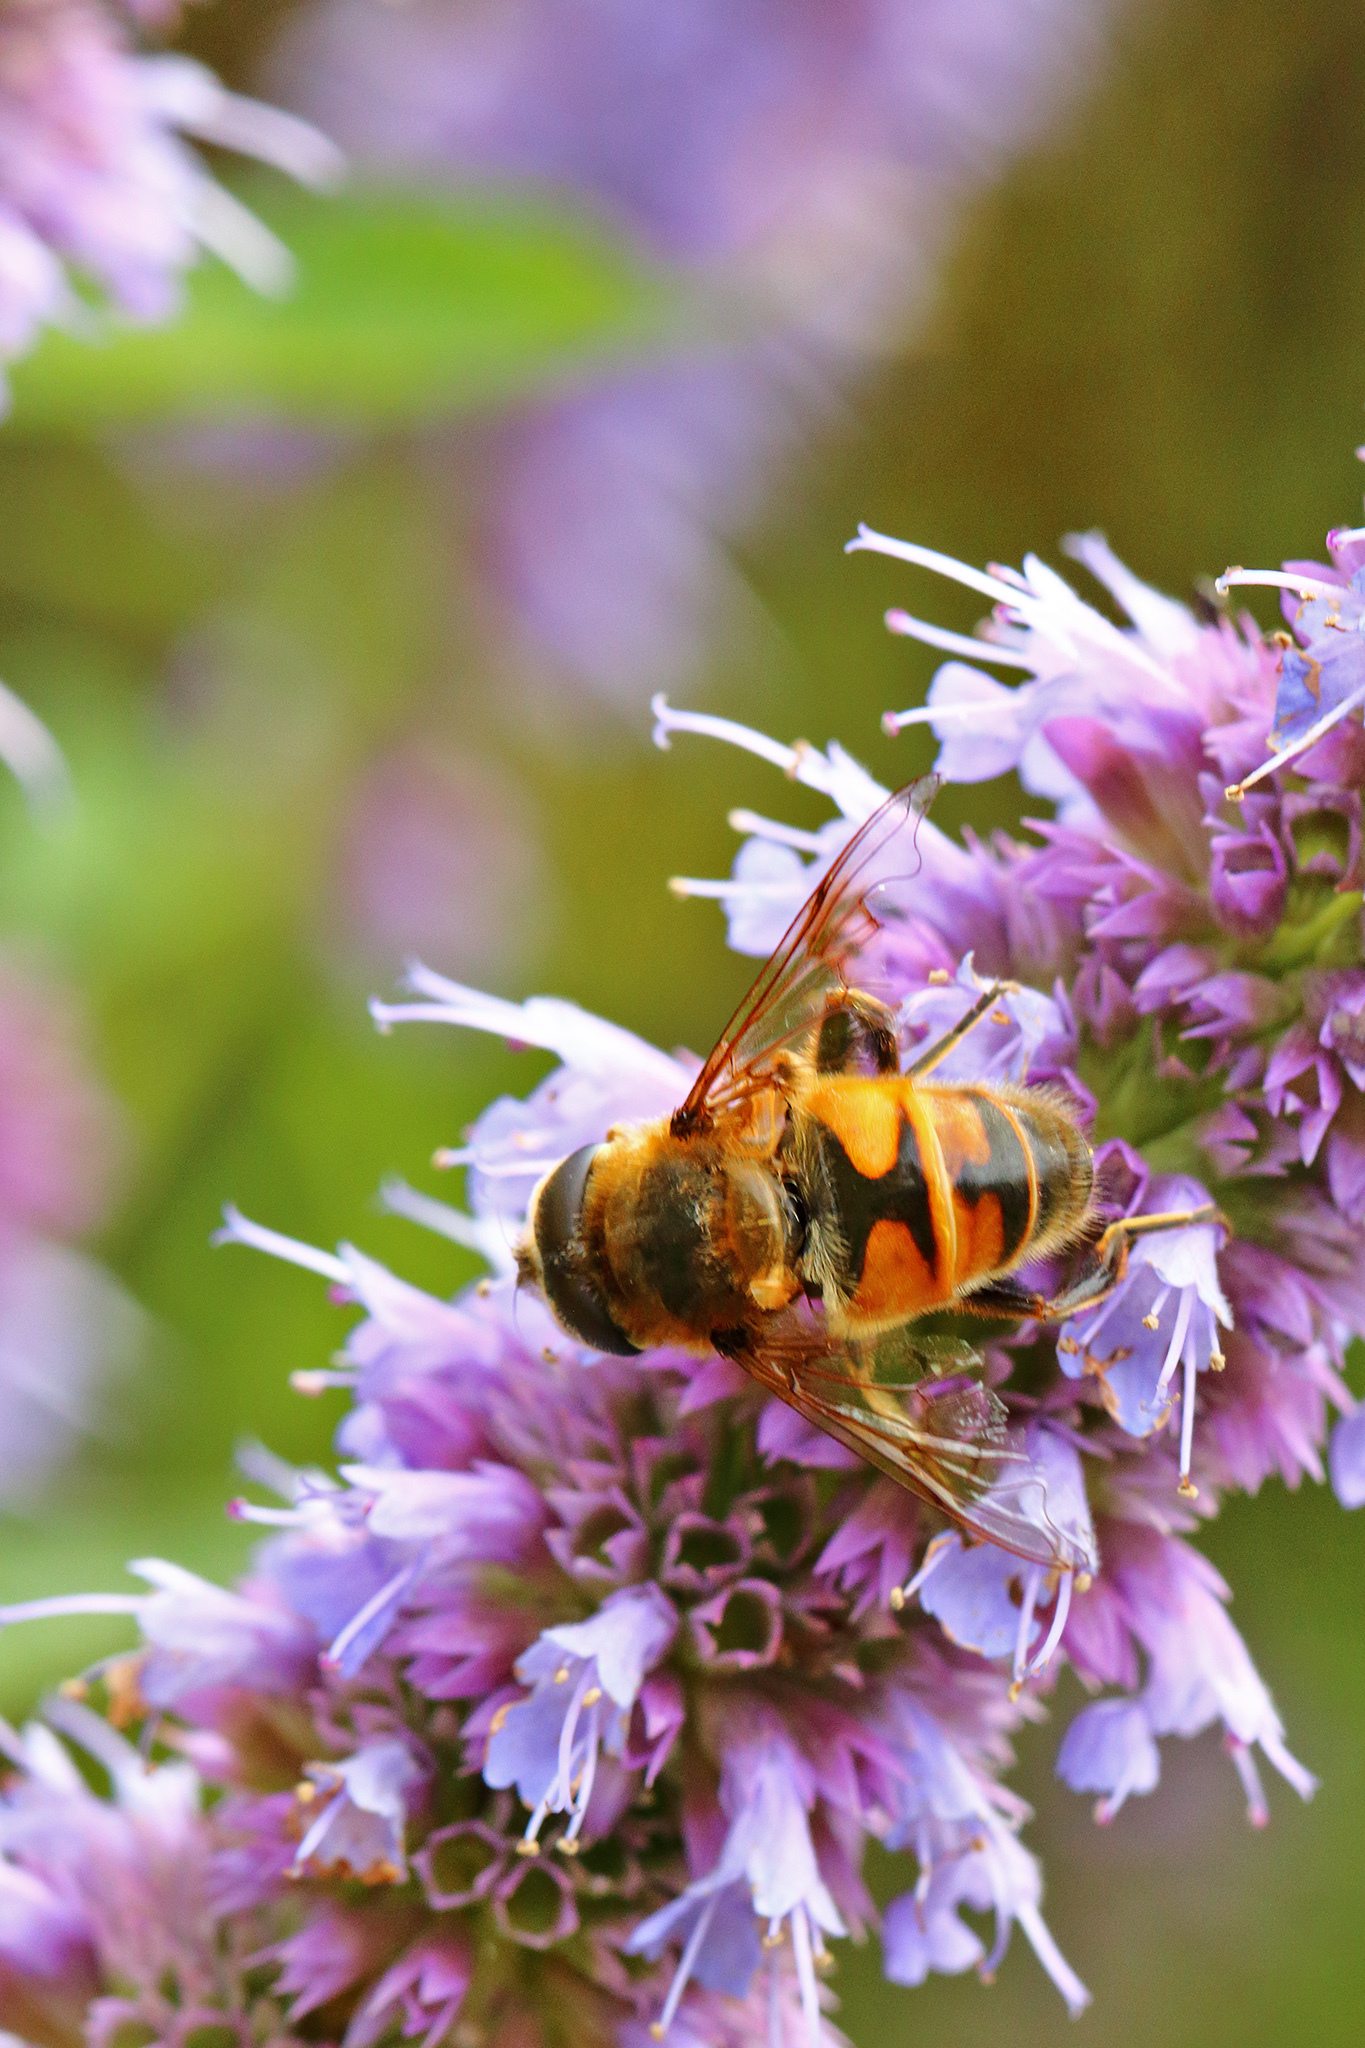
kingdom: Animalia
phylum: Arthropoda
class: Insecta
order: Diptera
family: Syrphidae
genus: Eristalis
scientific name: Eristalis tenax
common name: Drone fly
